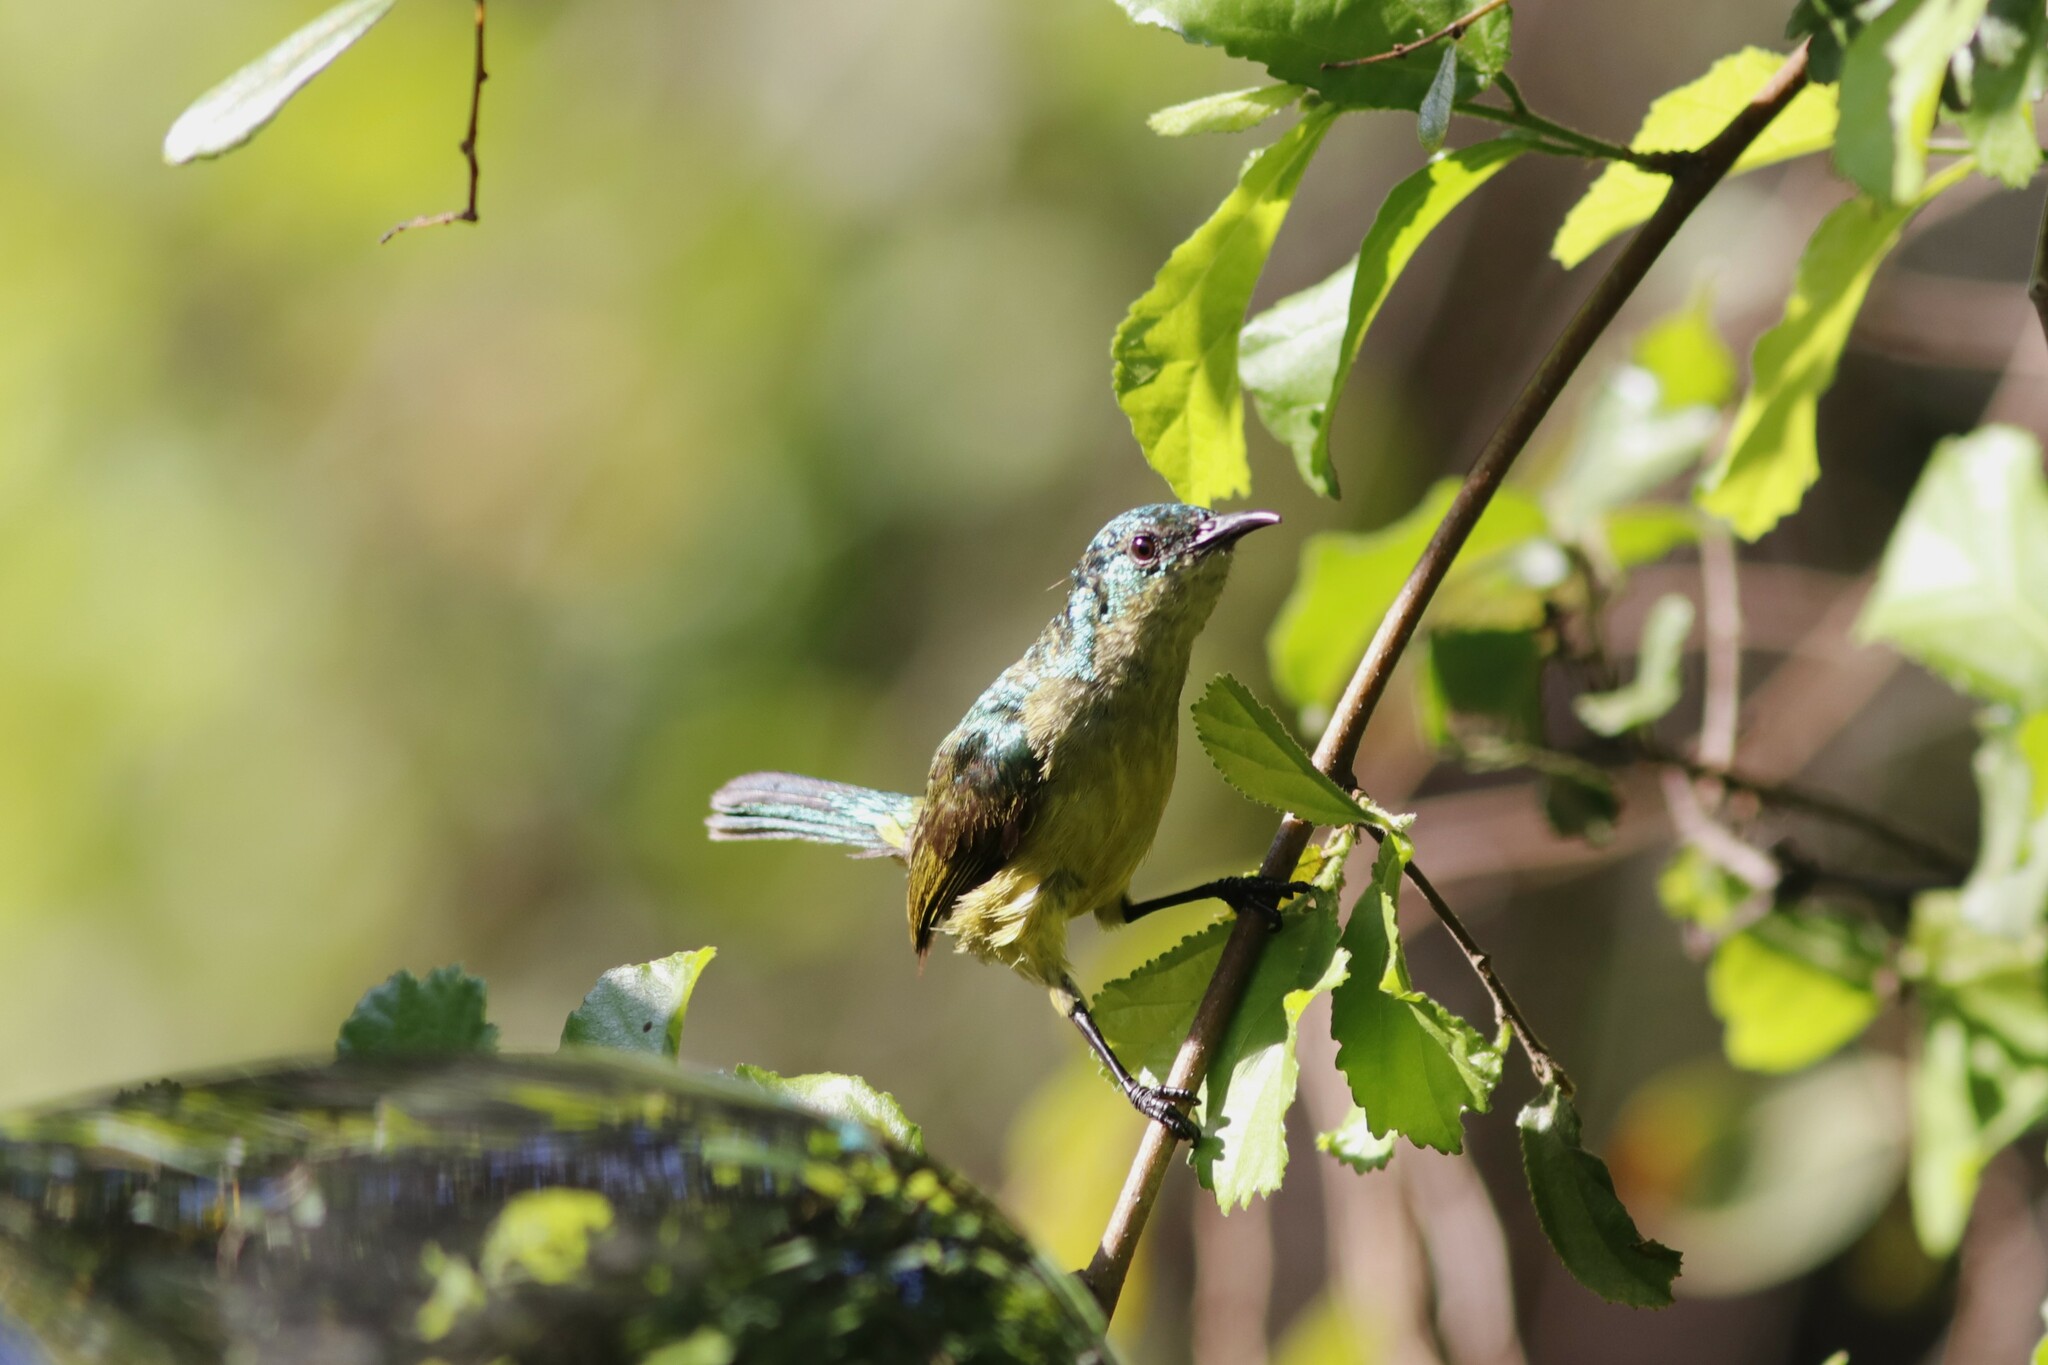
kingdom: Animalia
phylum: Chordata
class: Aves
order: Passeriformes
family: Nectariniidae
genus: Hedydipna
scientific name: Hedydipna collaris
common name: Collared sunbird
